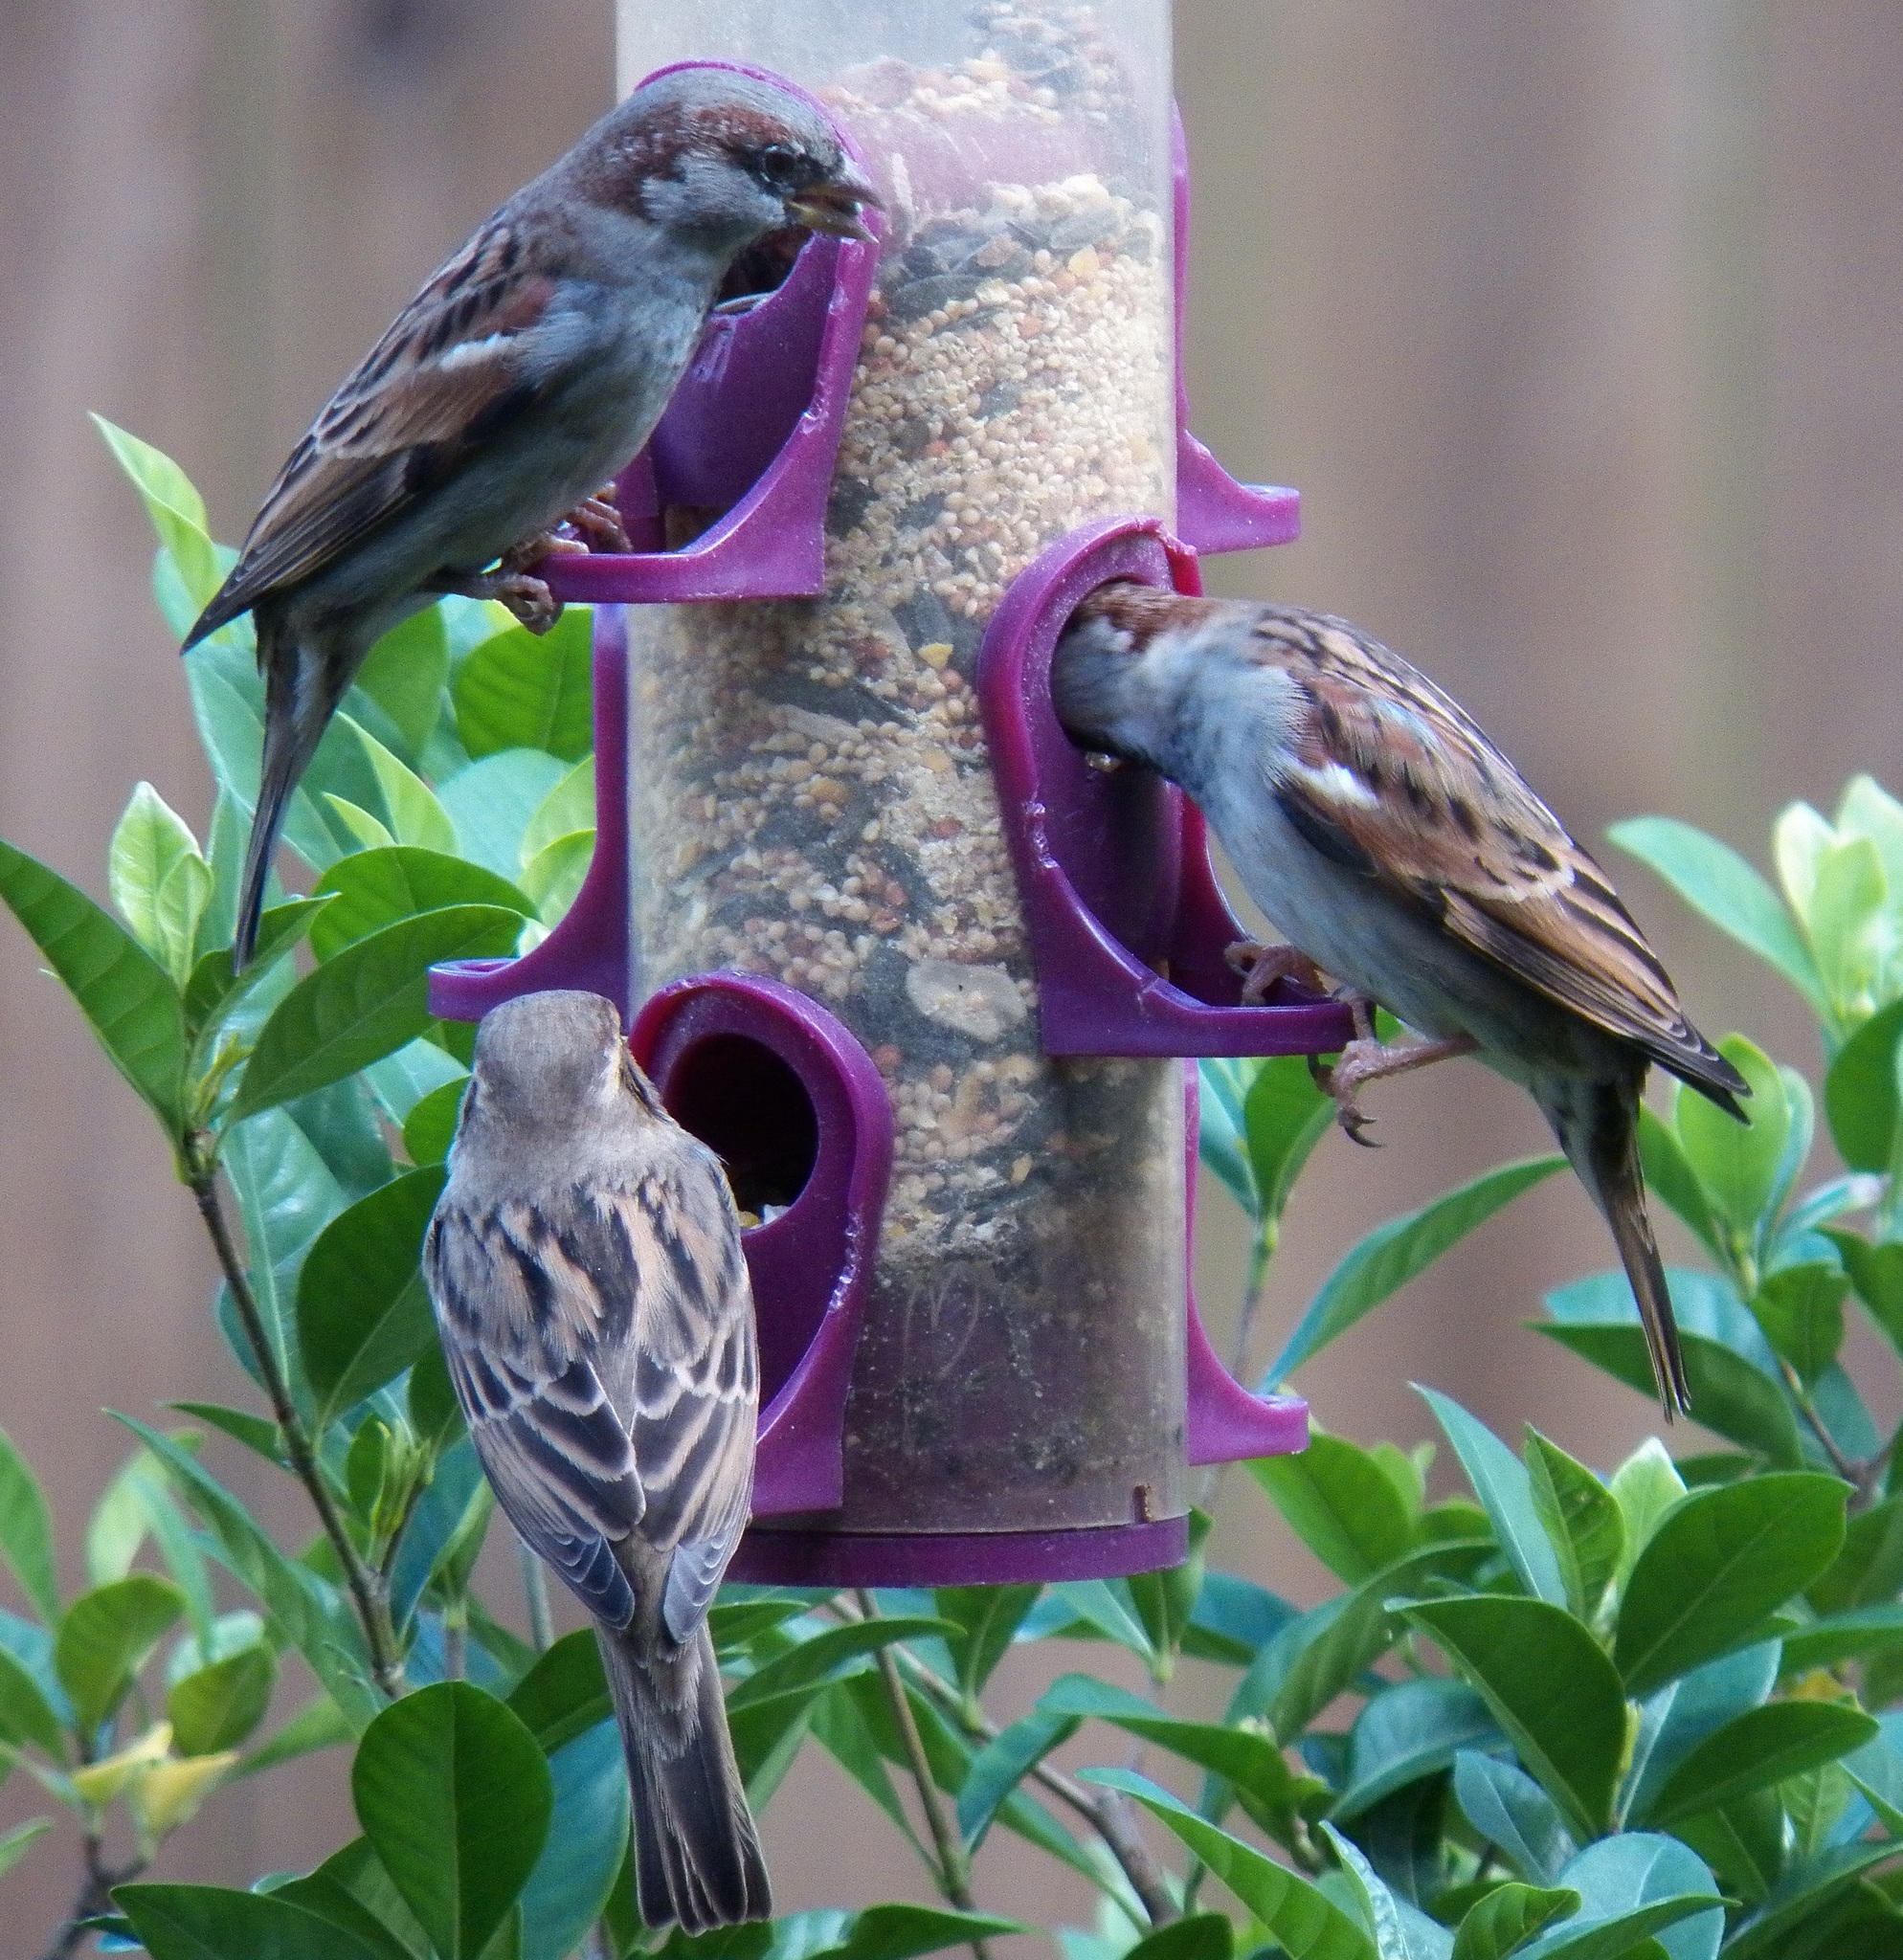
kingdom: Animalia
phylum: Chordata
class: Aves
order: Passeriformes
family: Passeridae
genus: Passer
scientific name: Passer domesticus
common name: House sparrow
